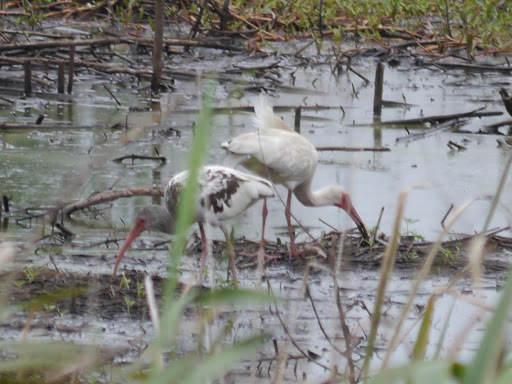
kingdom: Animalia
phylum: Chordata
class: Aves
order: Pelecaniformes
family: Threskiornithidae
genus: Eudocimus
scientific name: Eudocimus albus
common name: White ibis
